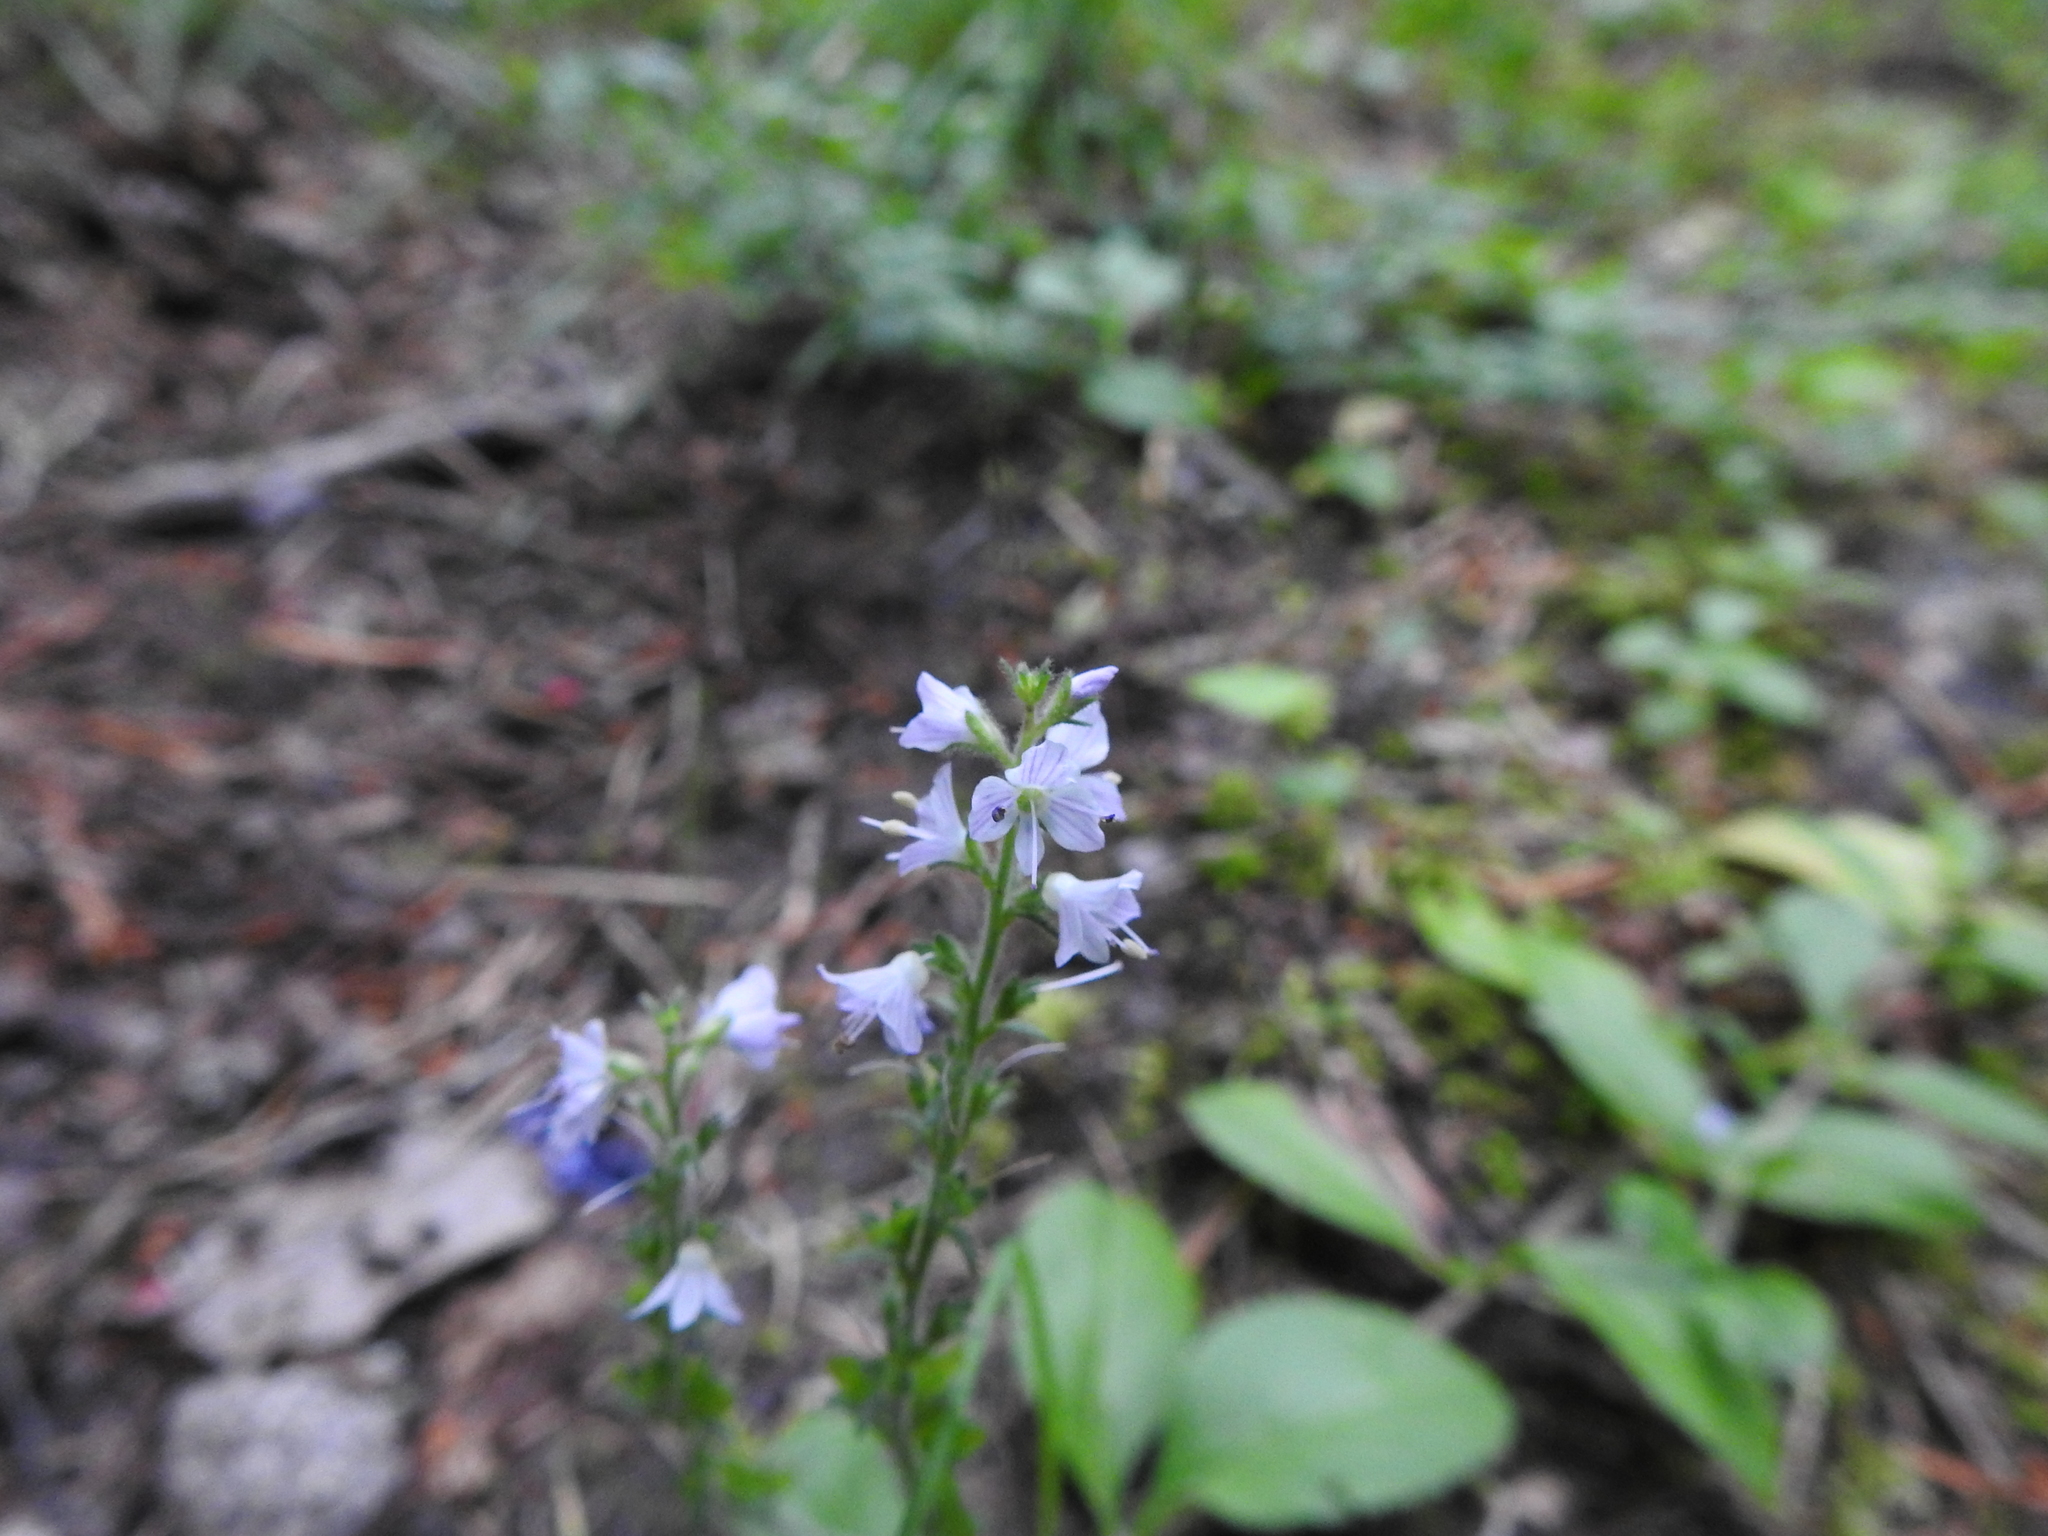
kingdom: Plantae
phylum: Tracheophyta
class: Magnoliopsida
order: Lamiales
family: Plantaginaceae
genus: Veronica
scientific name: Veronica officinalis
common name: Common speedwell
